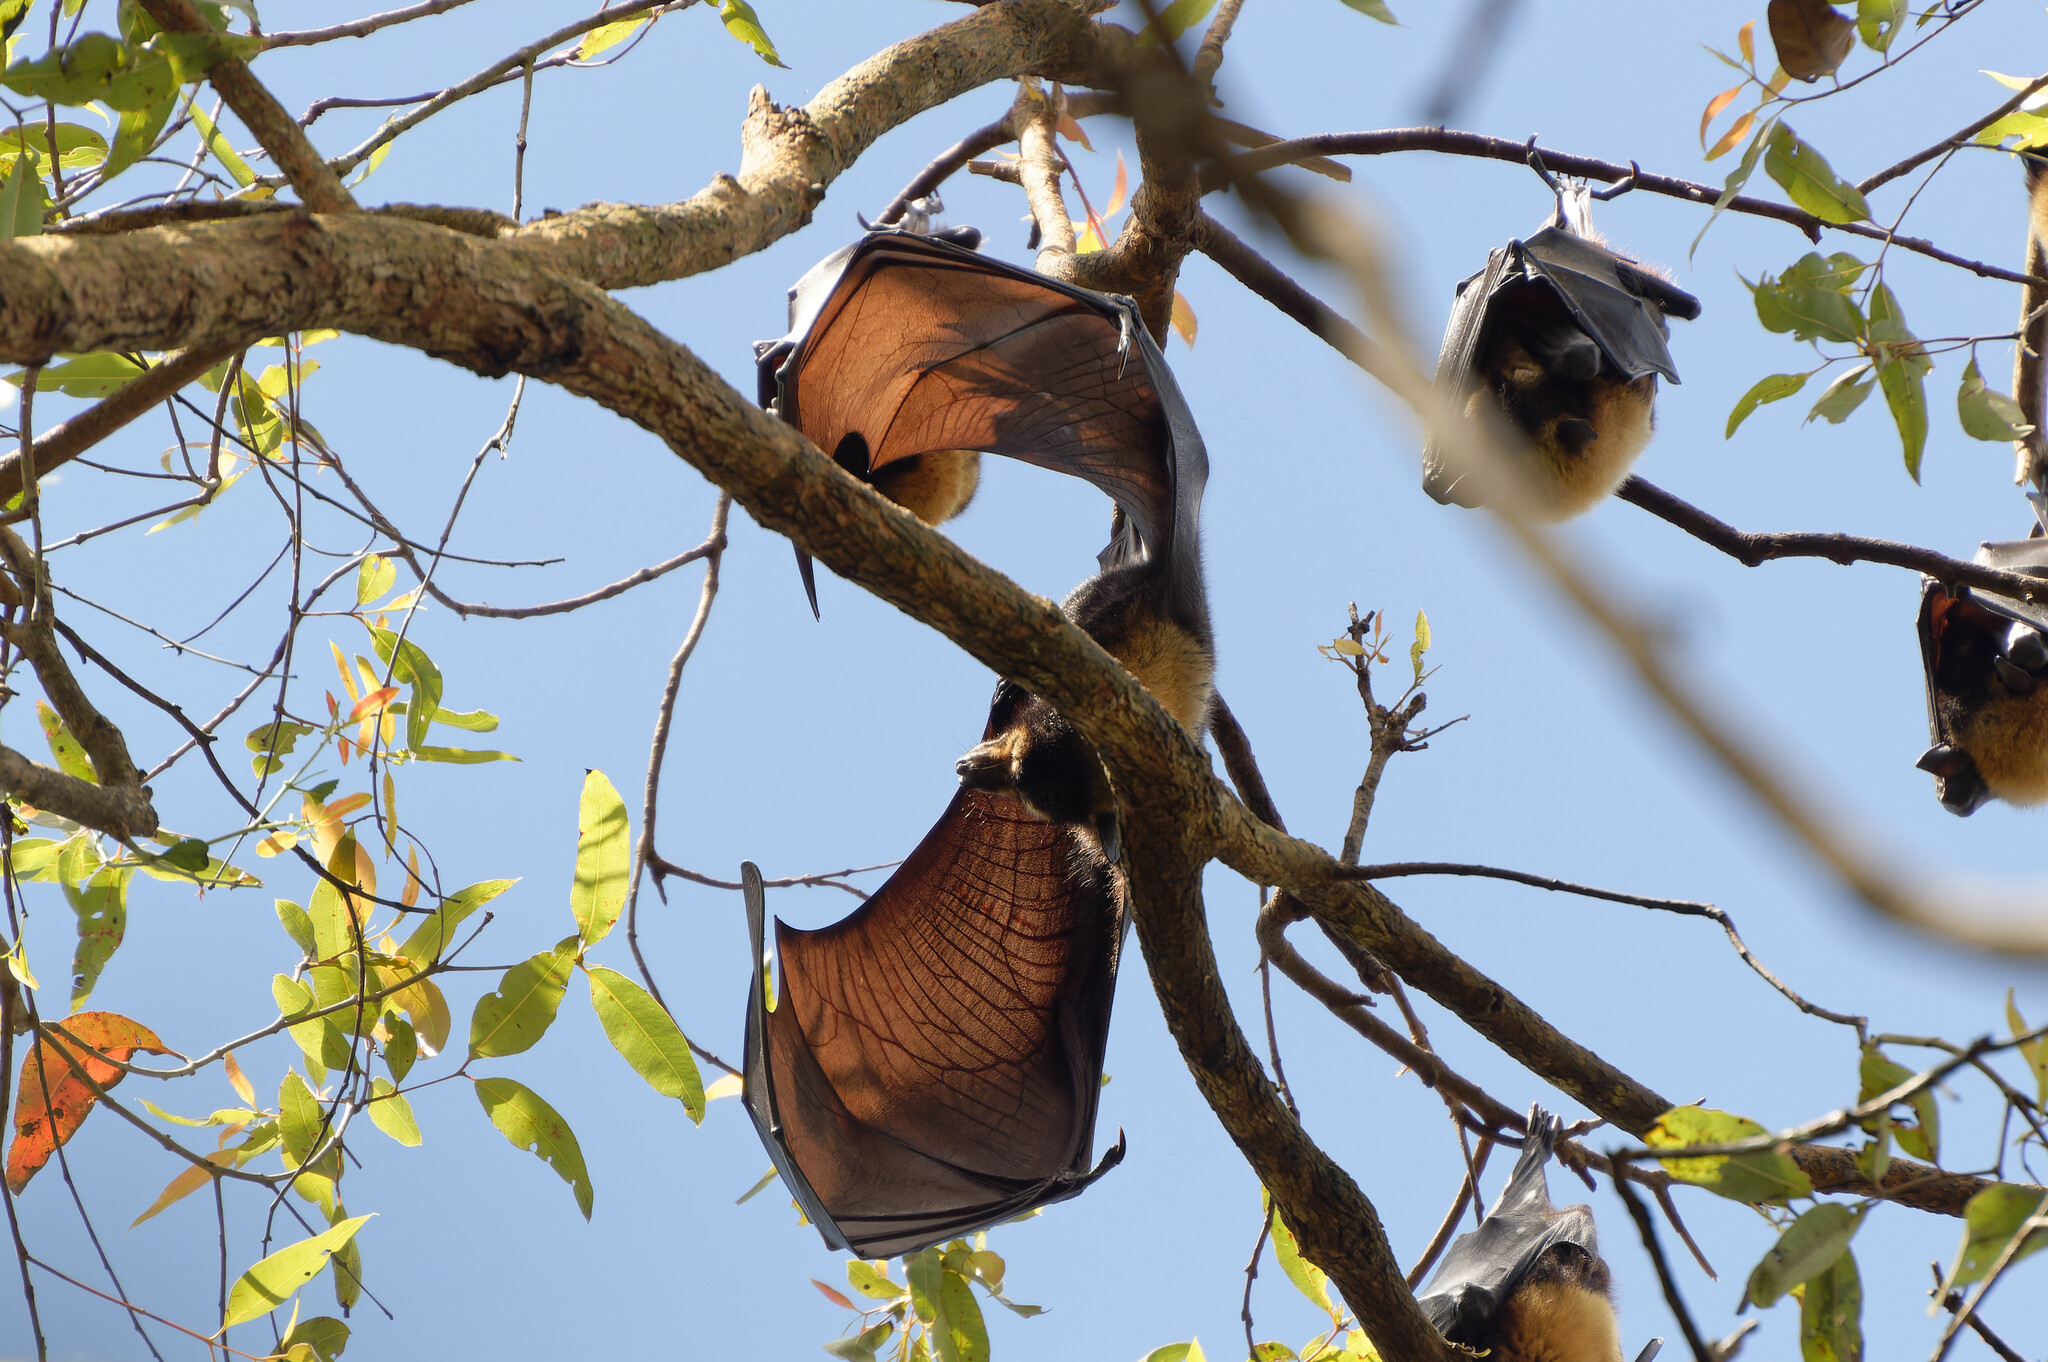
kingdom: Animalia
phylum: Chordata
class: Mammalia
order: Chiroptera
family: Pteropodidae
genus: Pteropus
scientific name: Pteropus conspicillatus
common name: Spectacled flying fox
